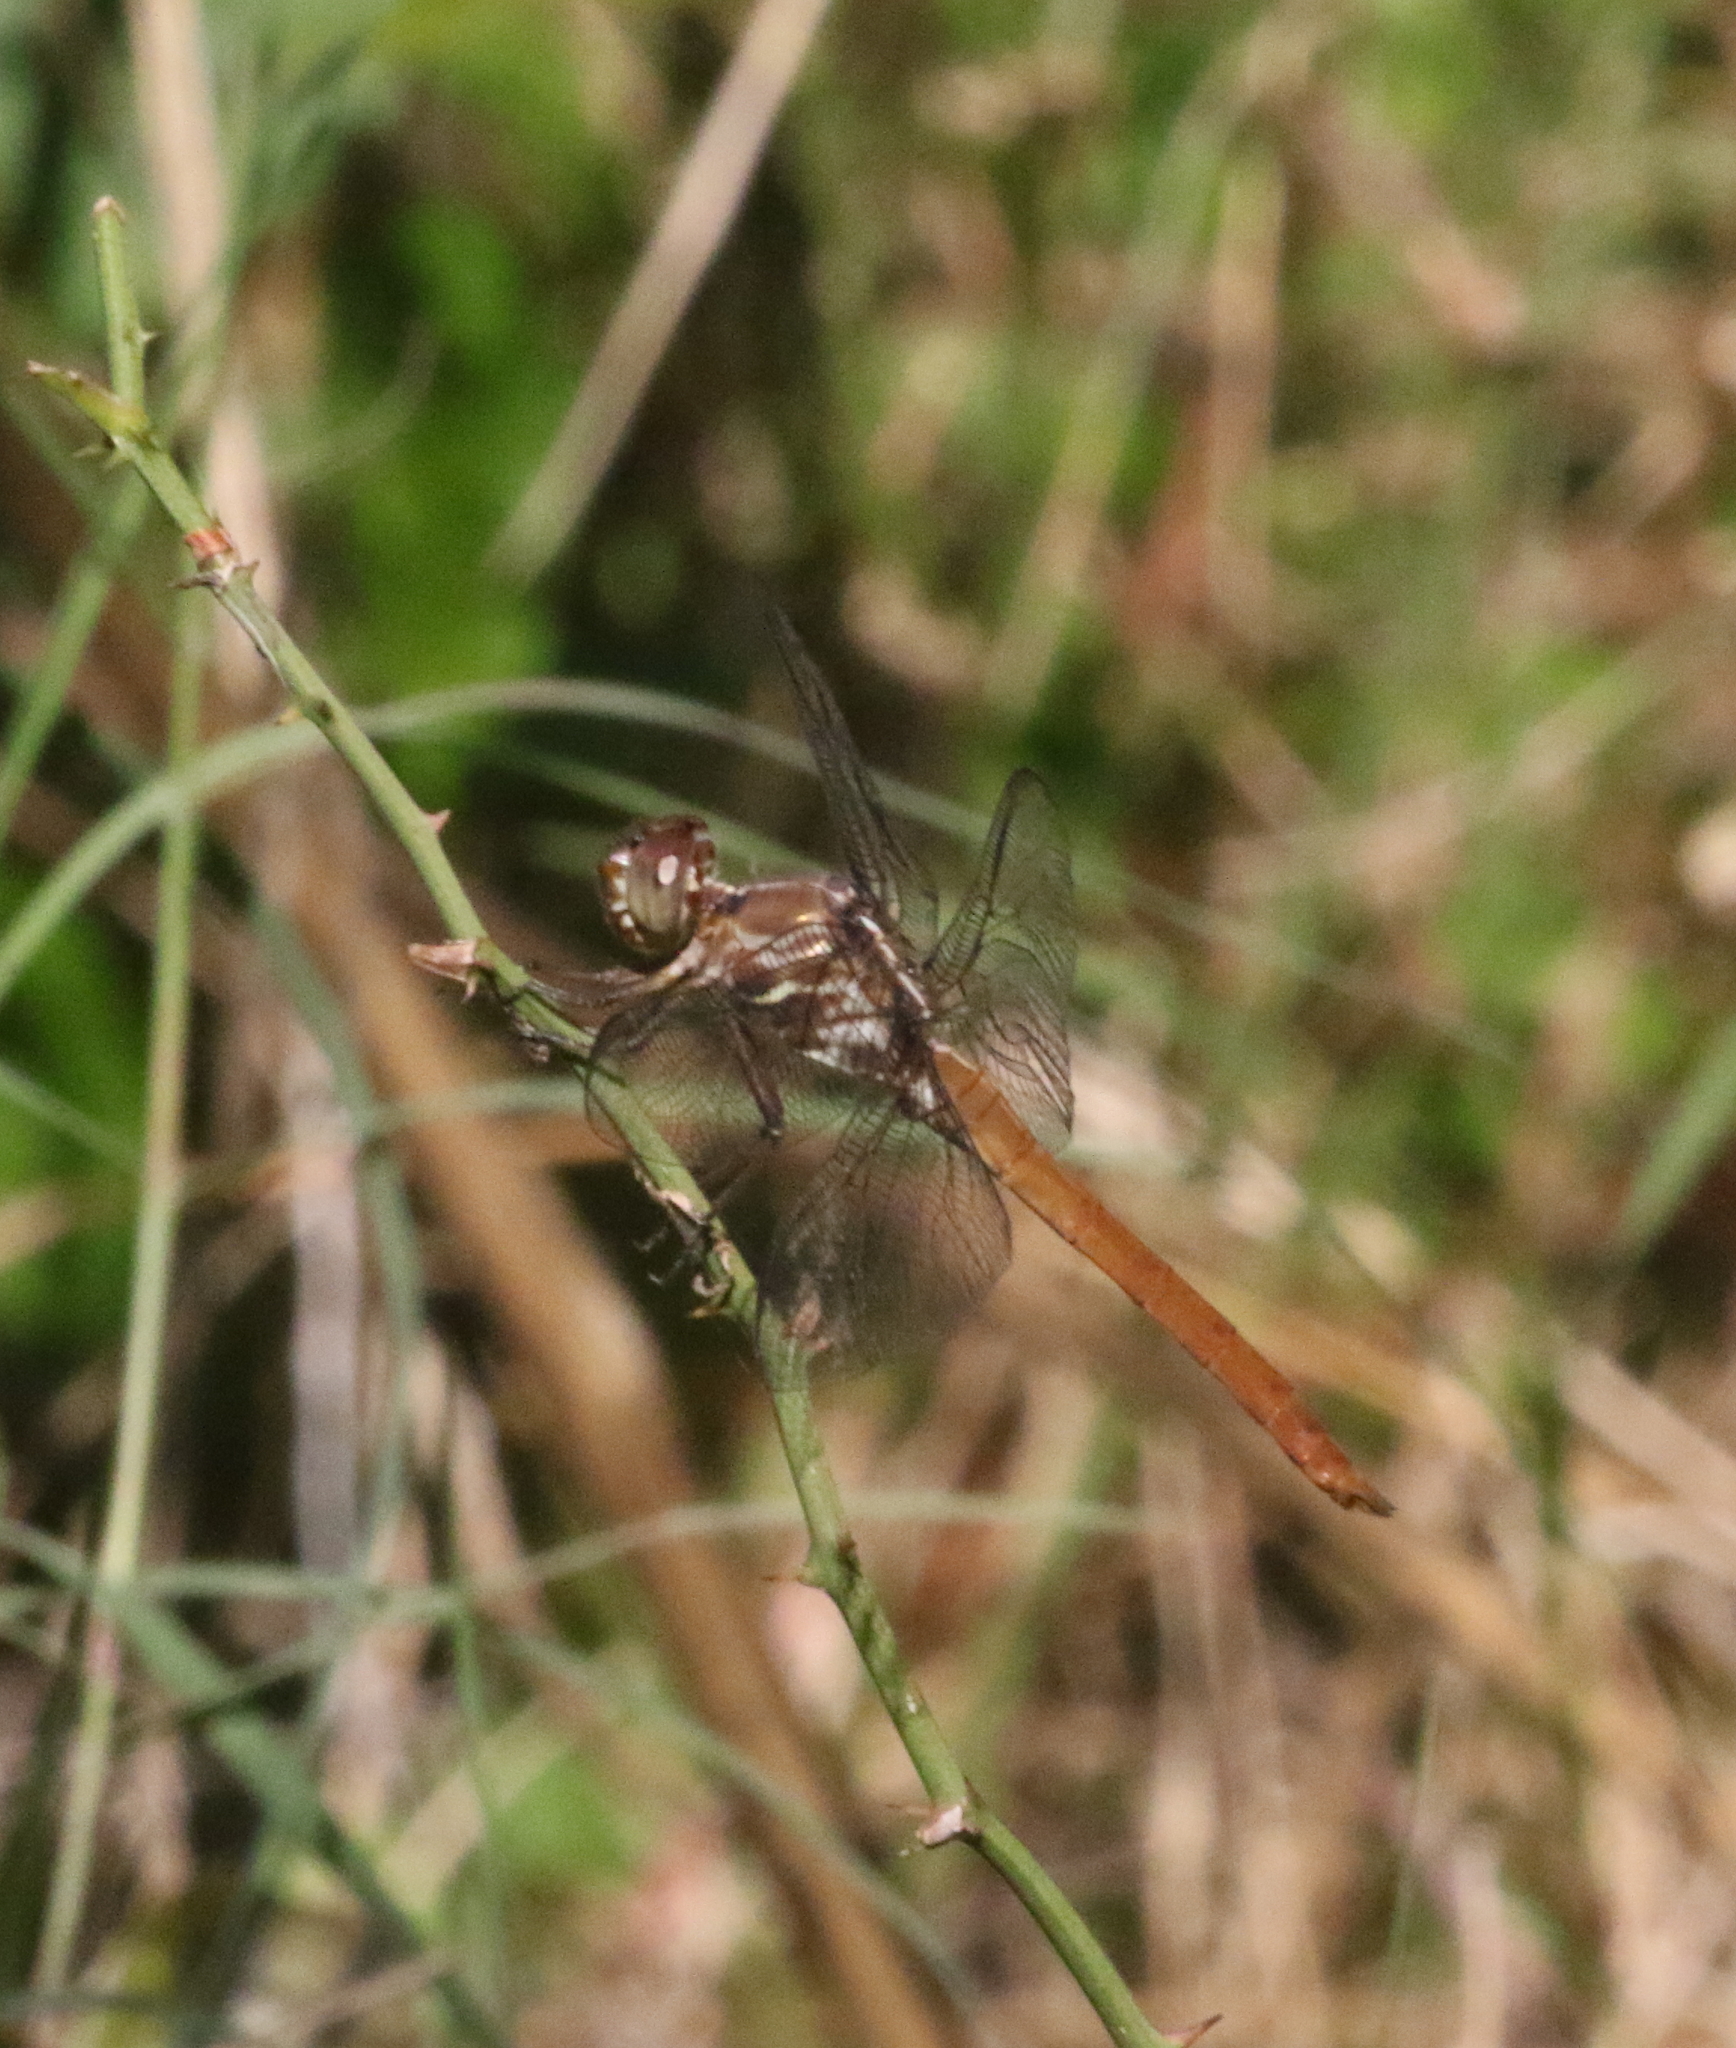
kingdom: Animalia
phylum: Arthropoda
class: Insecta
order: Odonata
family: Libellulidae
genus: Orthemis
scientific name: Orthemis ferruginea
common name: Roseate skimmer
